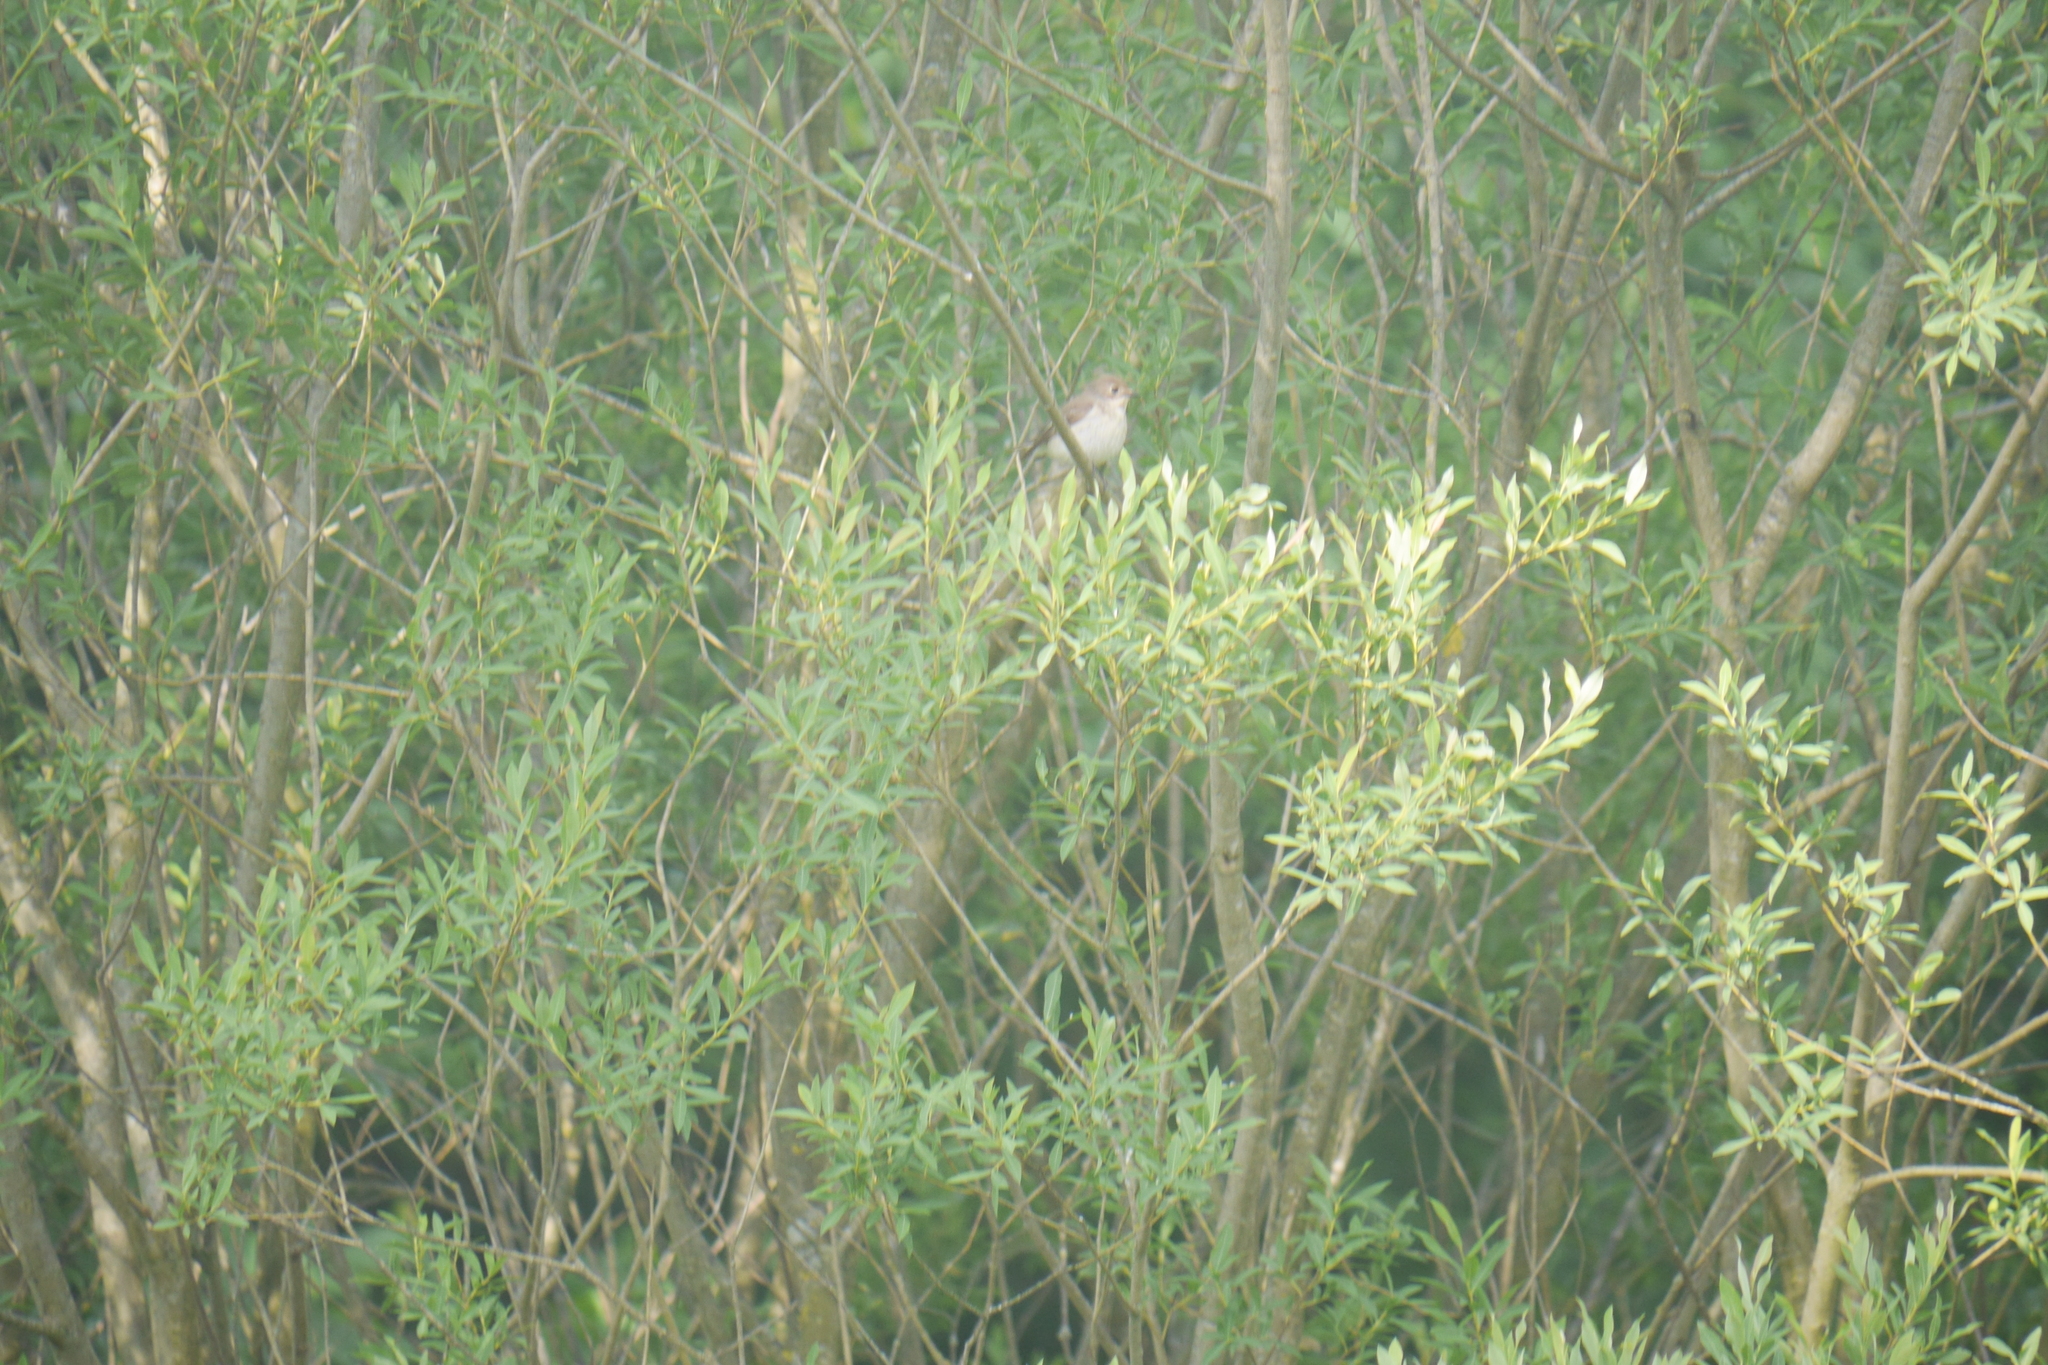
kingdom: Animalia
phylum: Chordata
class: Aves
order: Passeriformes
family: Muscicapidae
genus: Ficedula
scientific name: Ficedula hypoleuca
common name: European pied flycatcher
